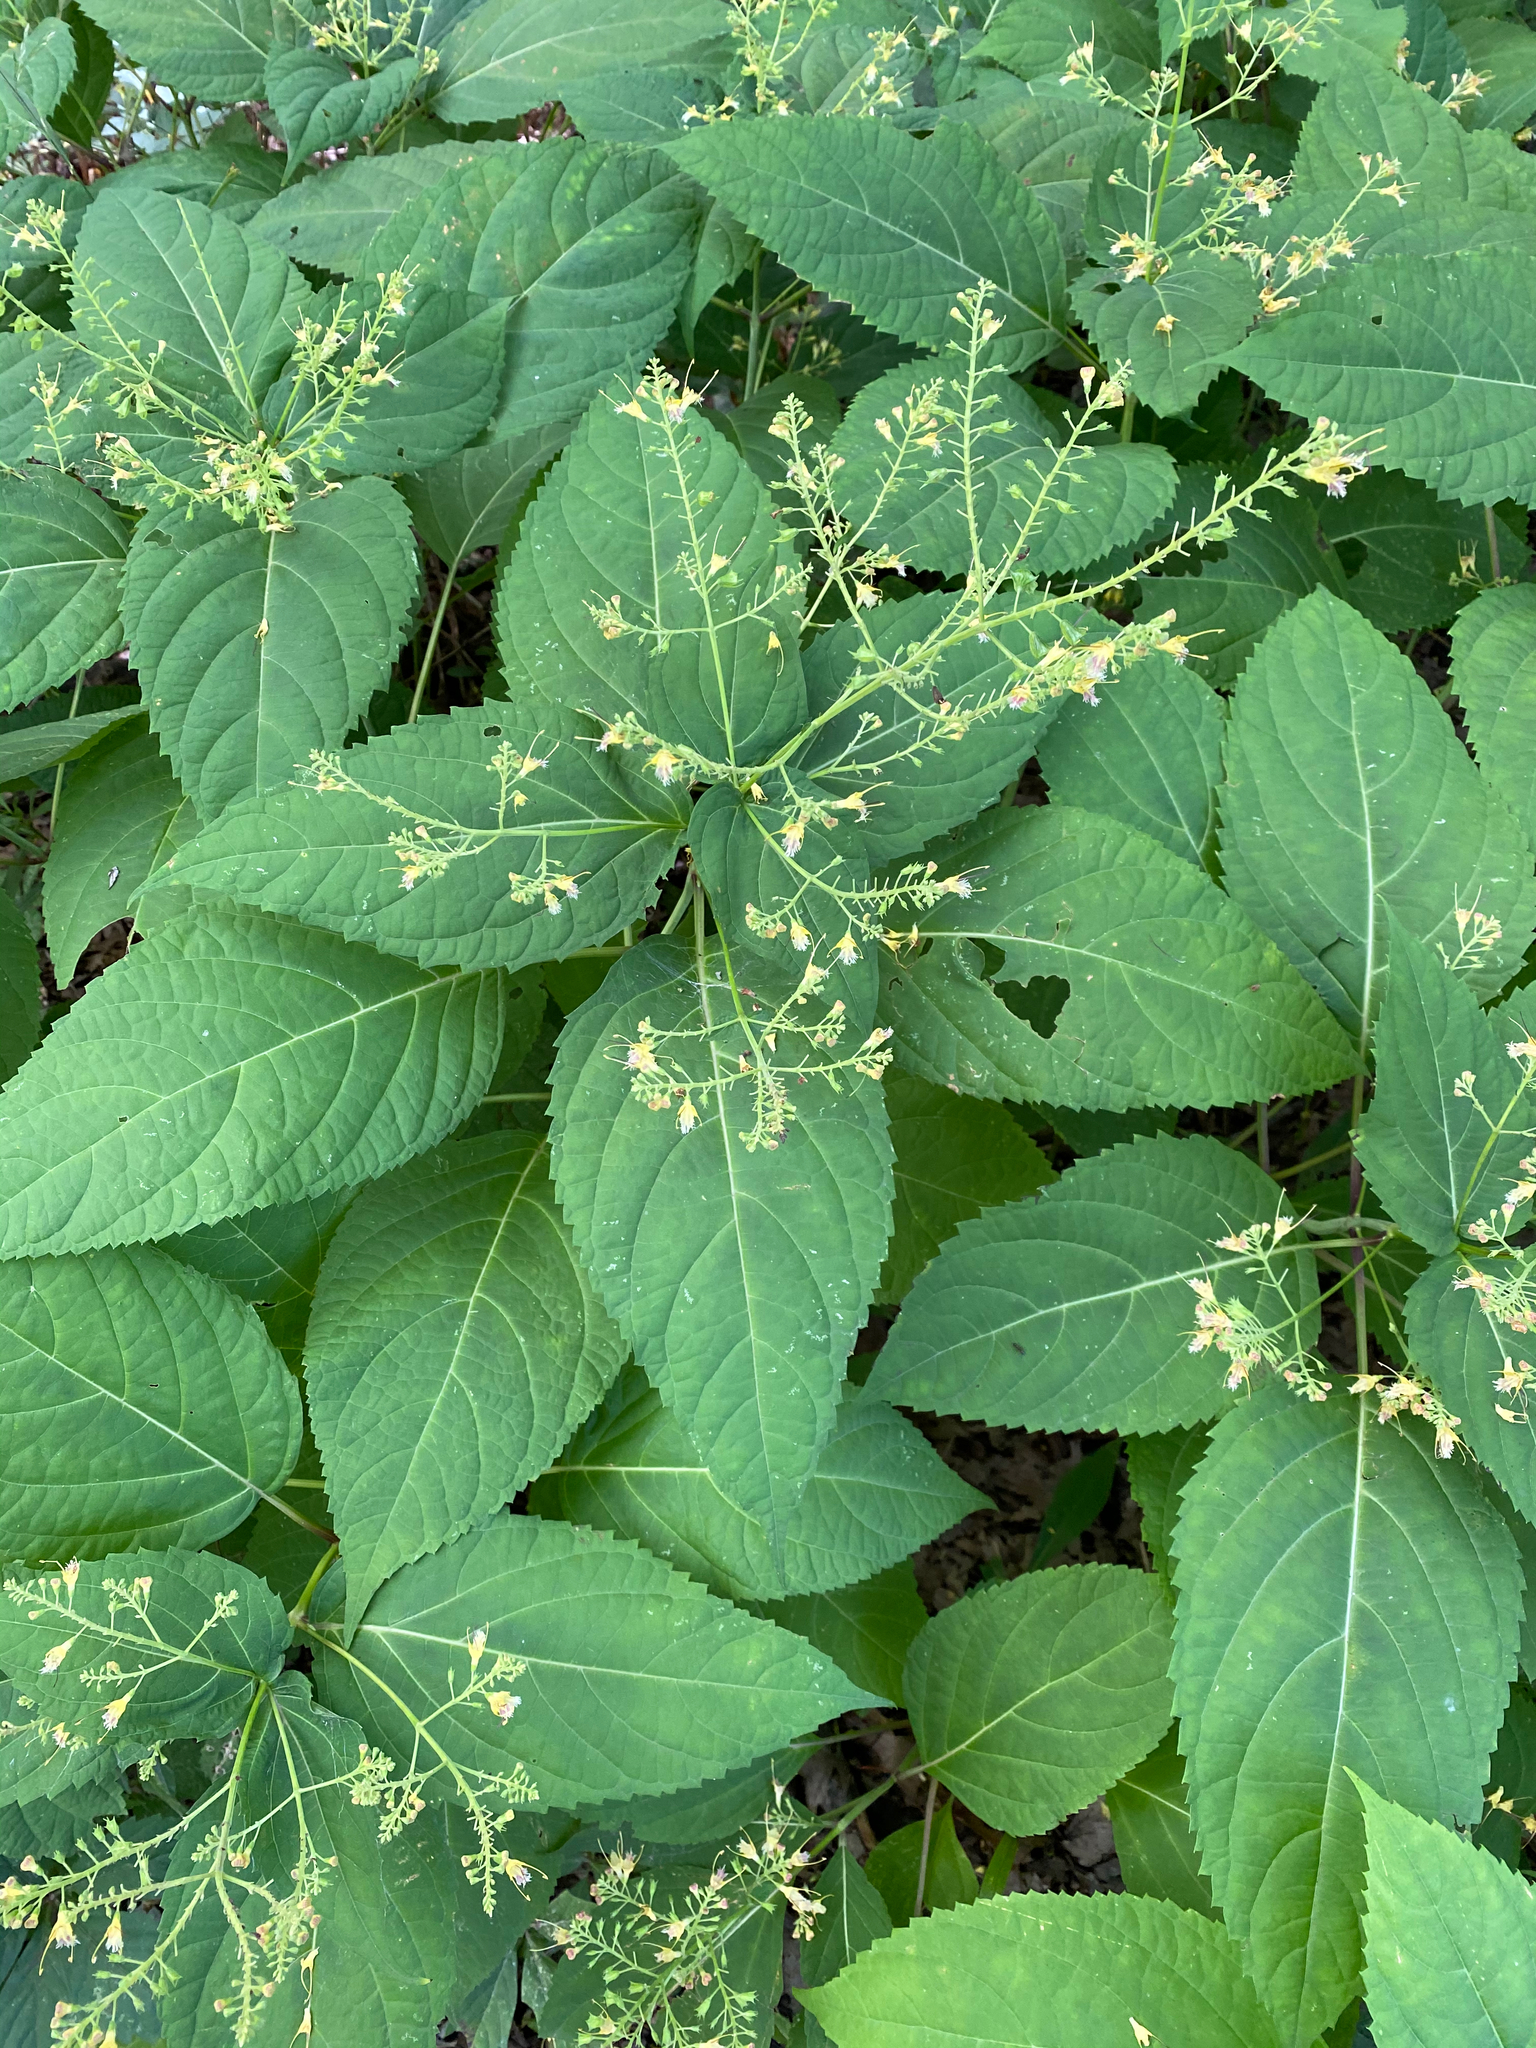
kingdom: Plantae
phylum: Tracheophyta
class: Magnoliopsida
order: Lamiales
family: Lamiaceae
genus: Collinsonia
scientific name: Collinsonia canadensis
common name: Northern horsebalm
